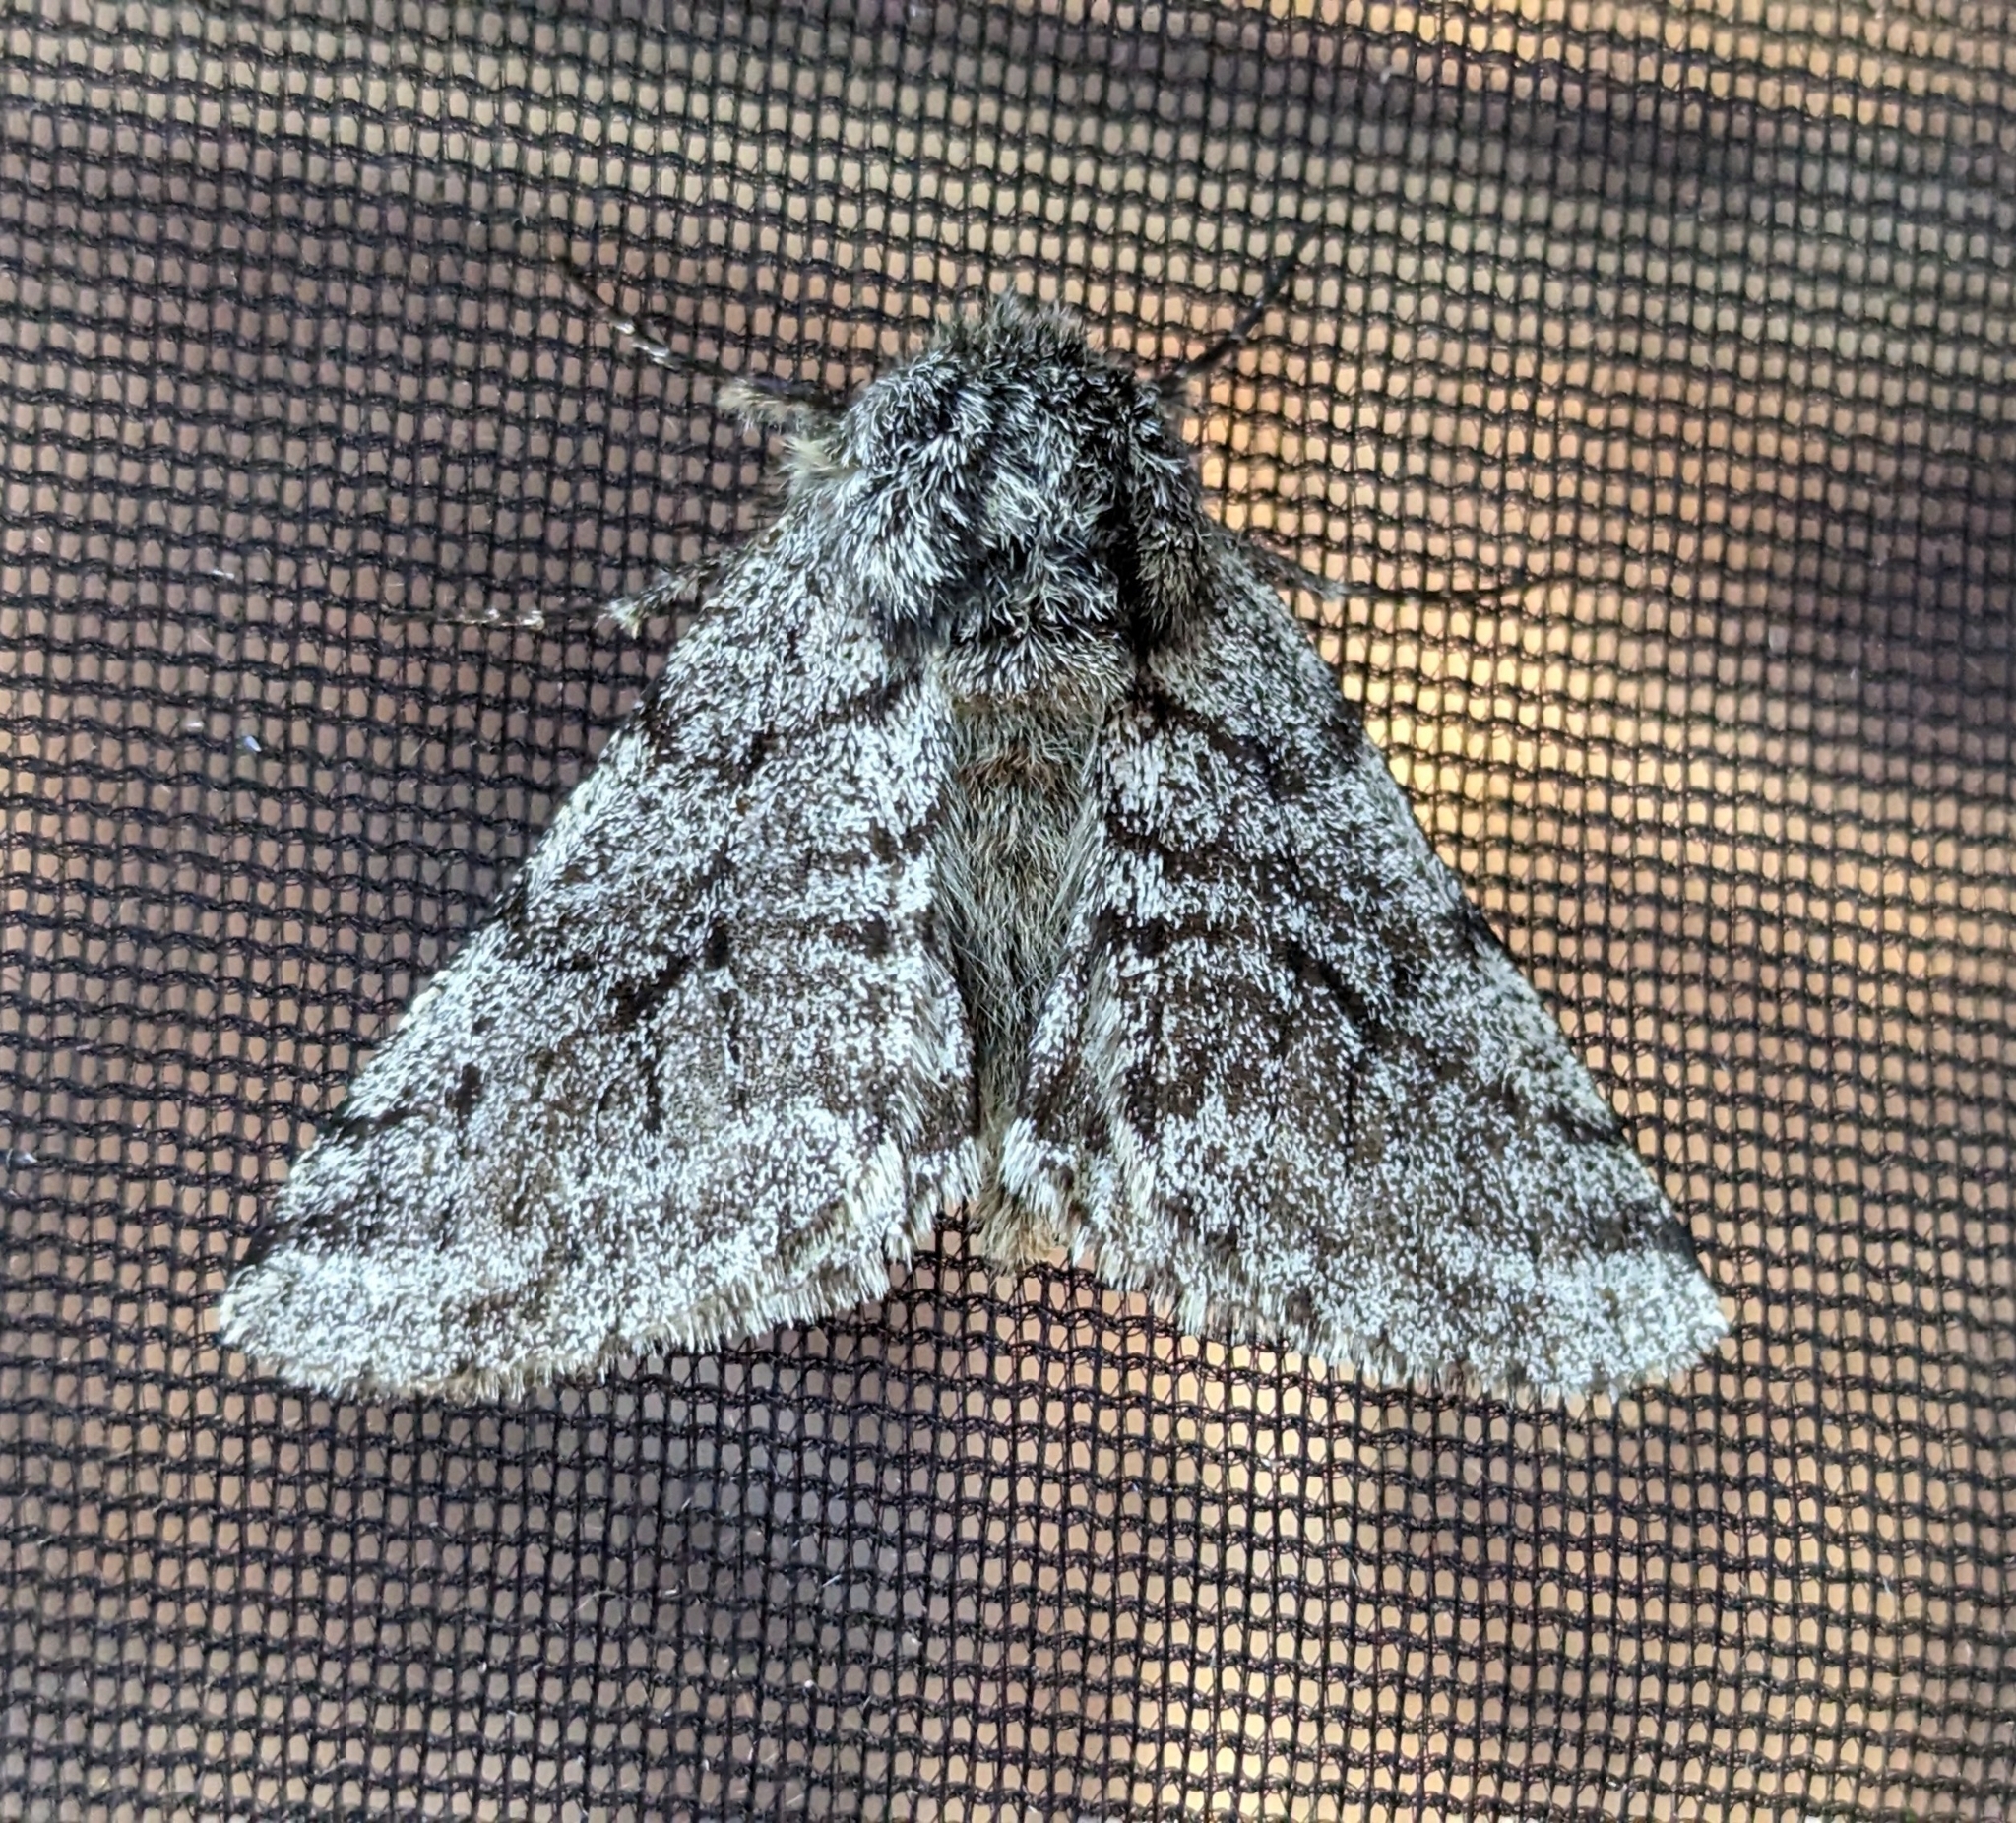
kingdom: Animalia
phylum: Arthropoda
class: Insecta
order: Lepidoptera
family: Geometridae
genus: Lycia
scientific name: Lycia ursaria
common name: Stout spanworm
